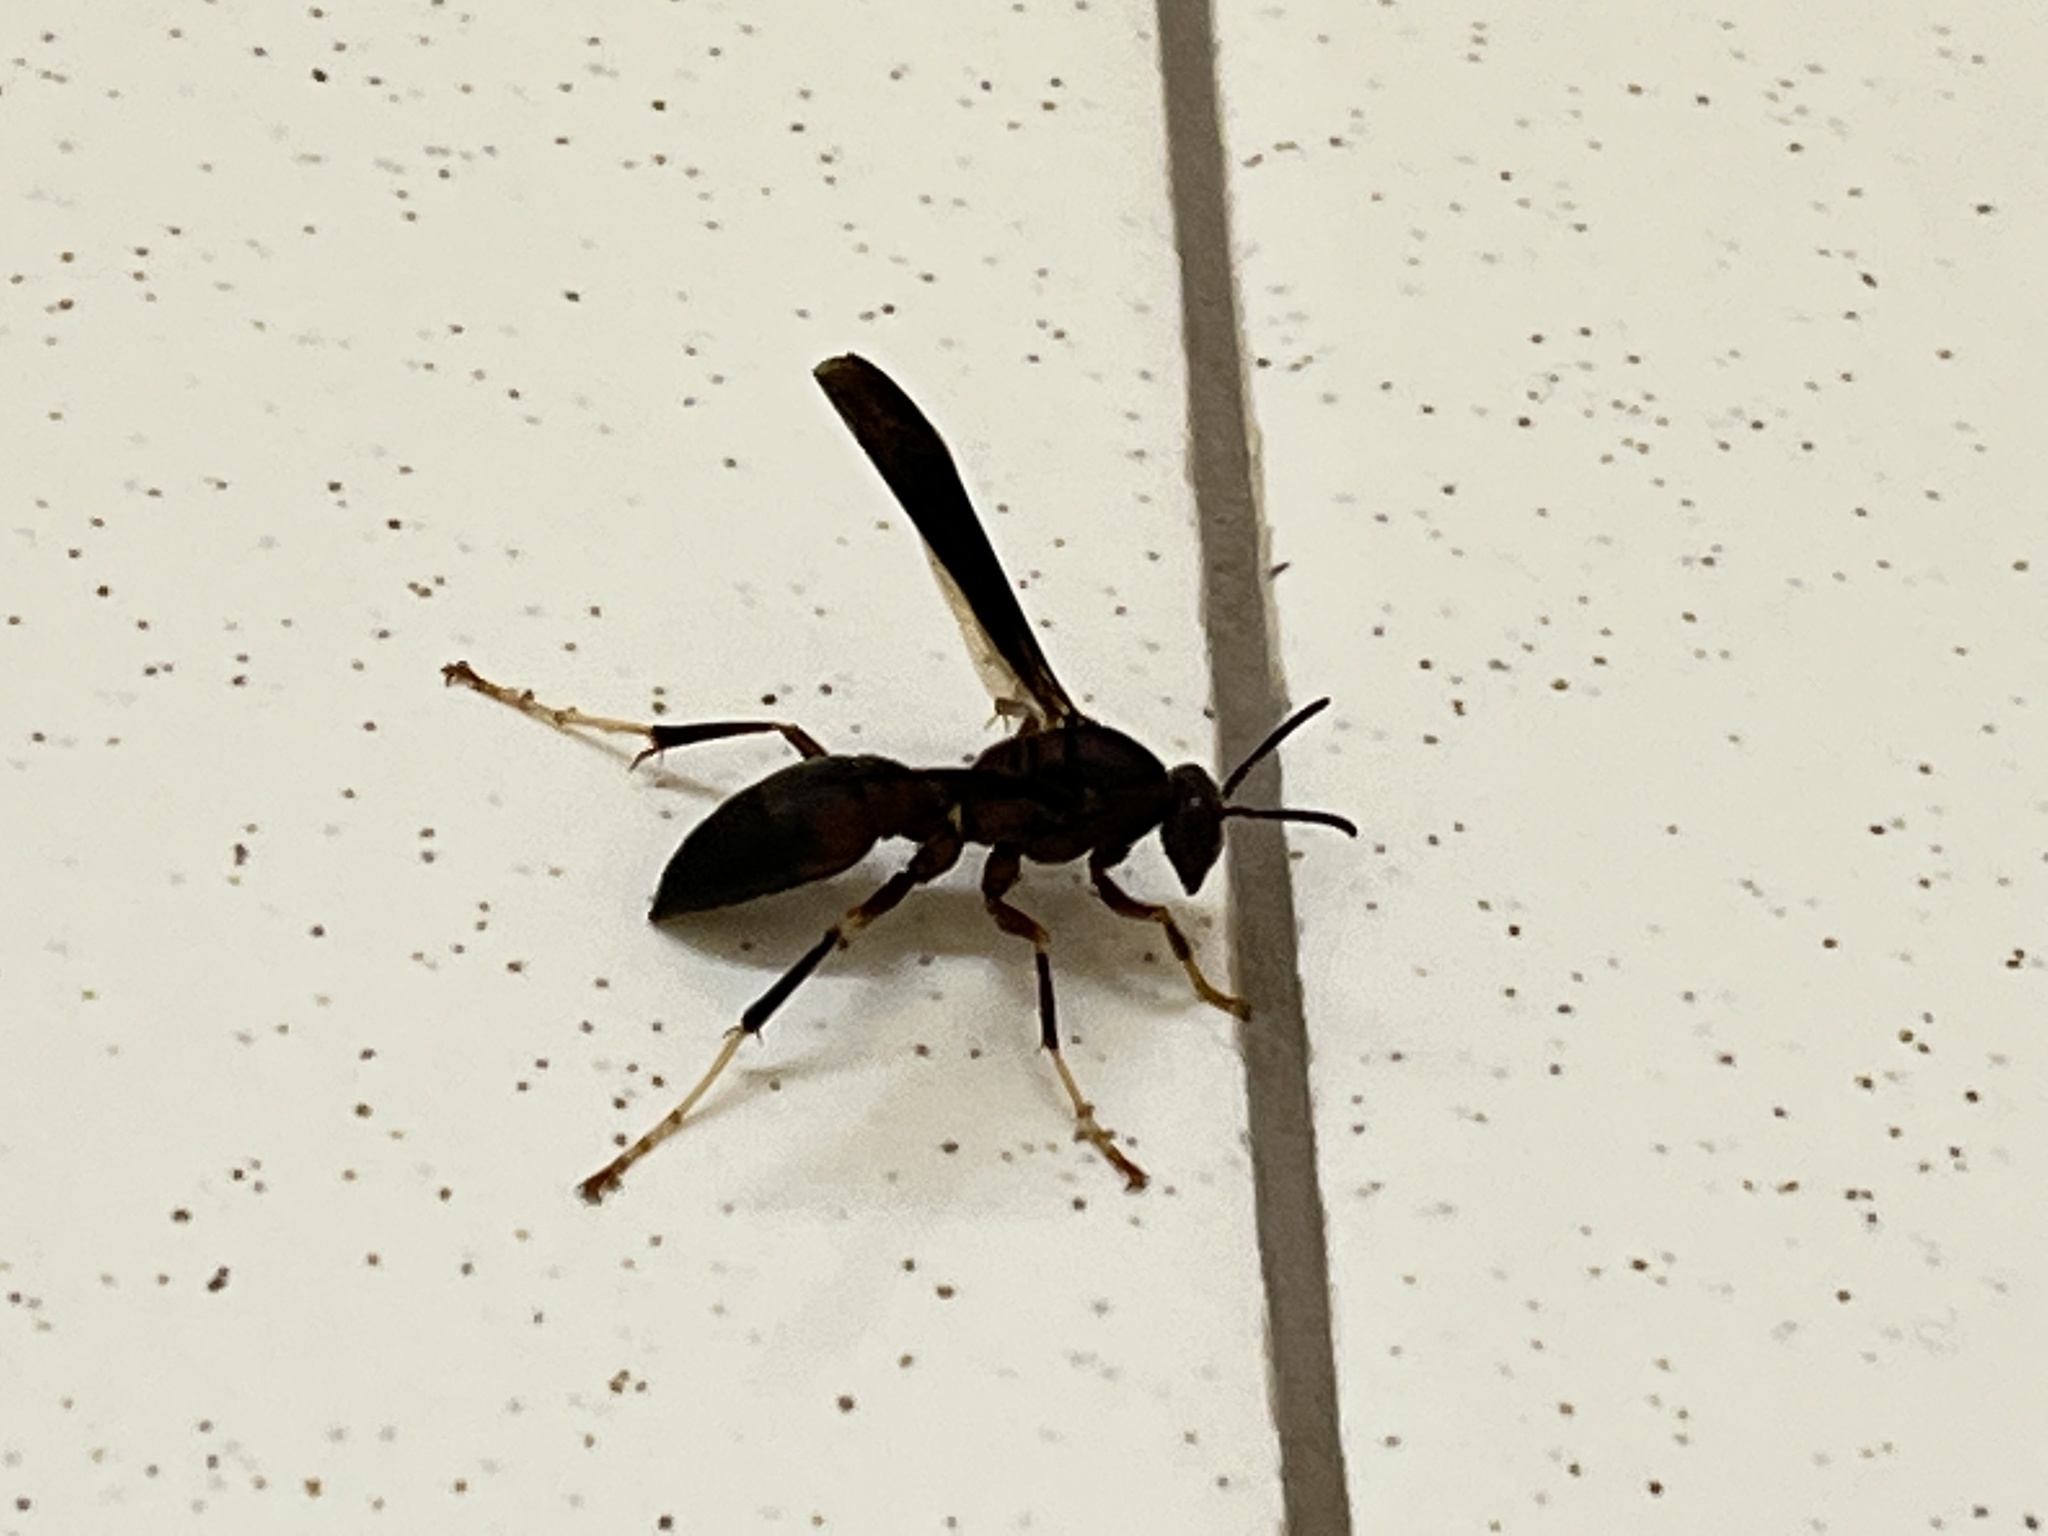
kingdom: Animalia
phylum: Arthropoda
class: Insecta
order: Hymenoptera
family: Eumenidae
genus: Polistes
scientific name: Polistes metricus
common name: Metric paper wasp
